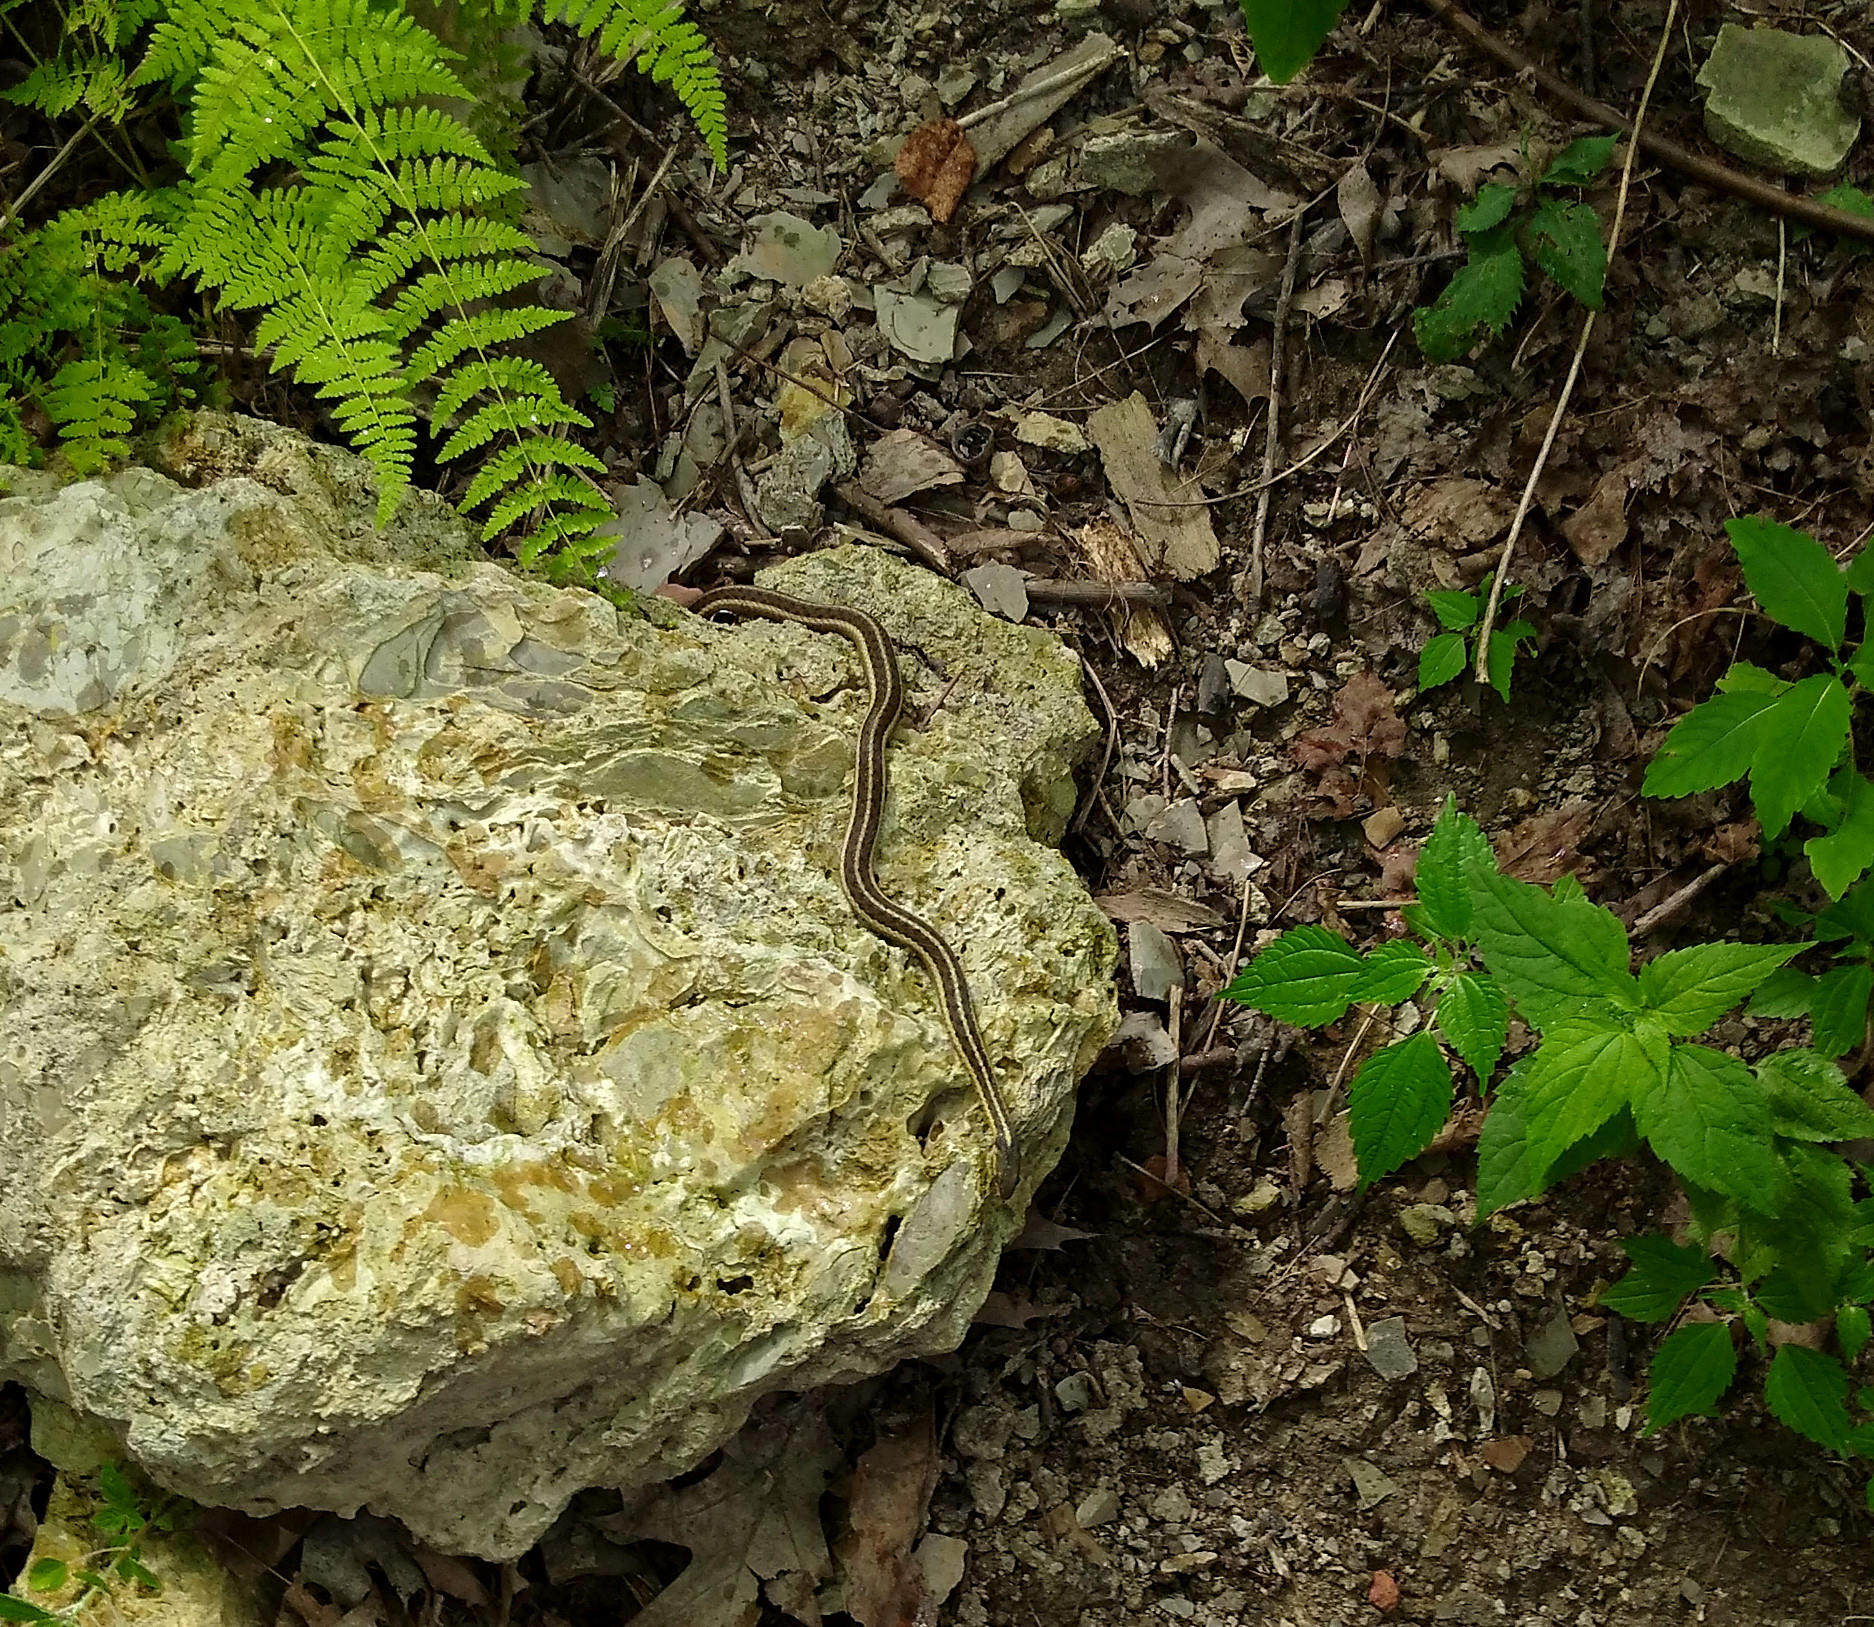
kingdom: Animalia
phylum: Chordata
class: Squamata
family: Colubridae
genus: Thamnophis
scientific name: Thamnophis sirtalis
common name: Common garter snake
